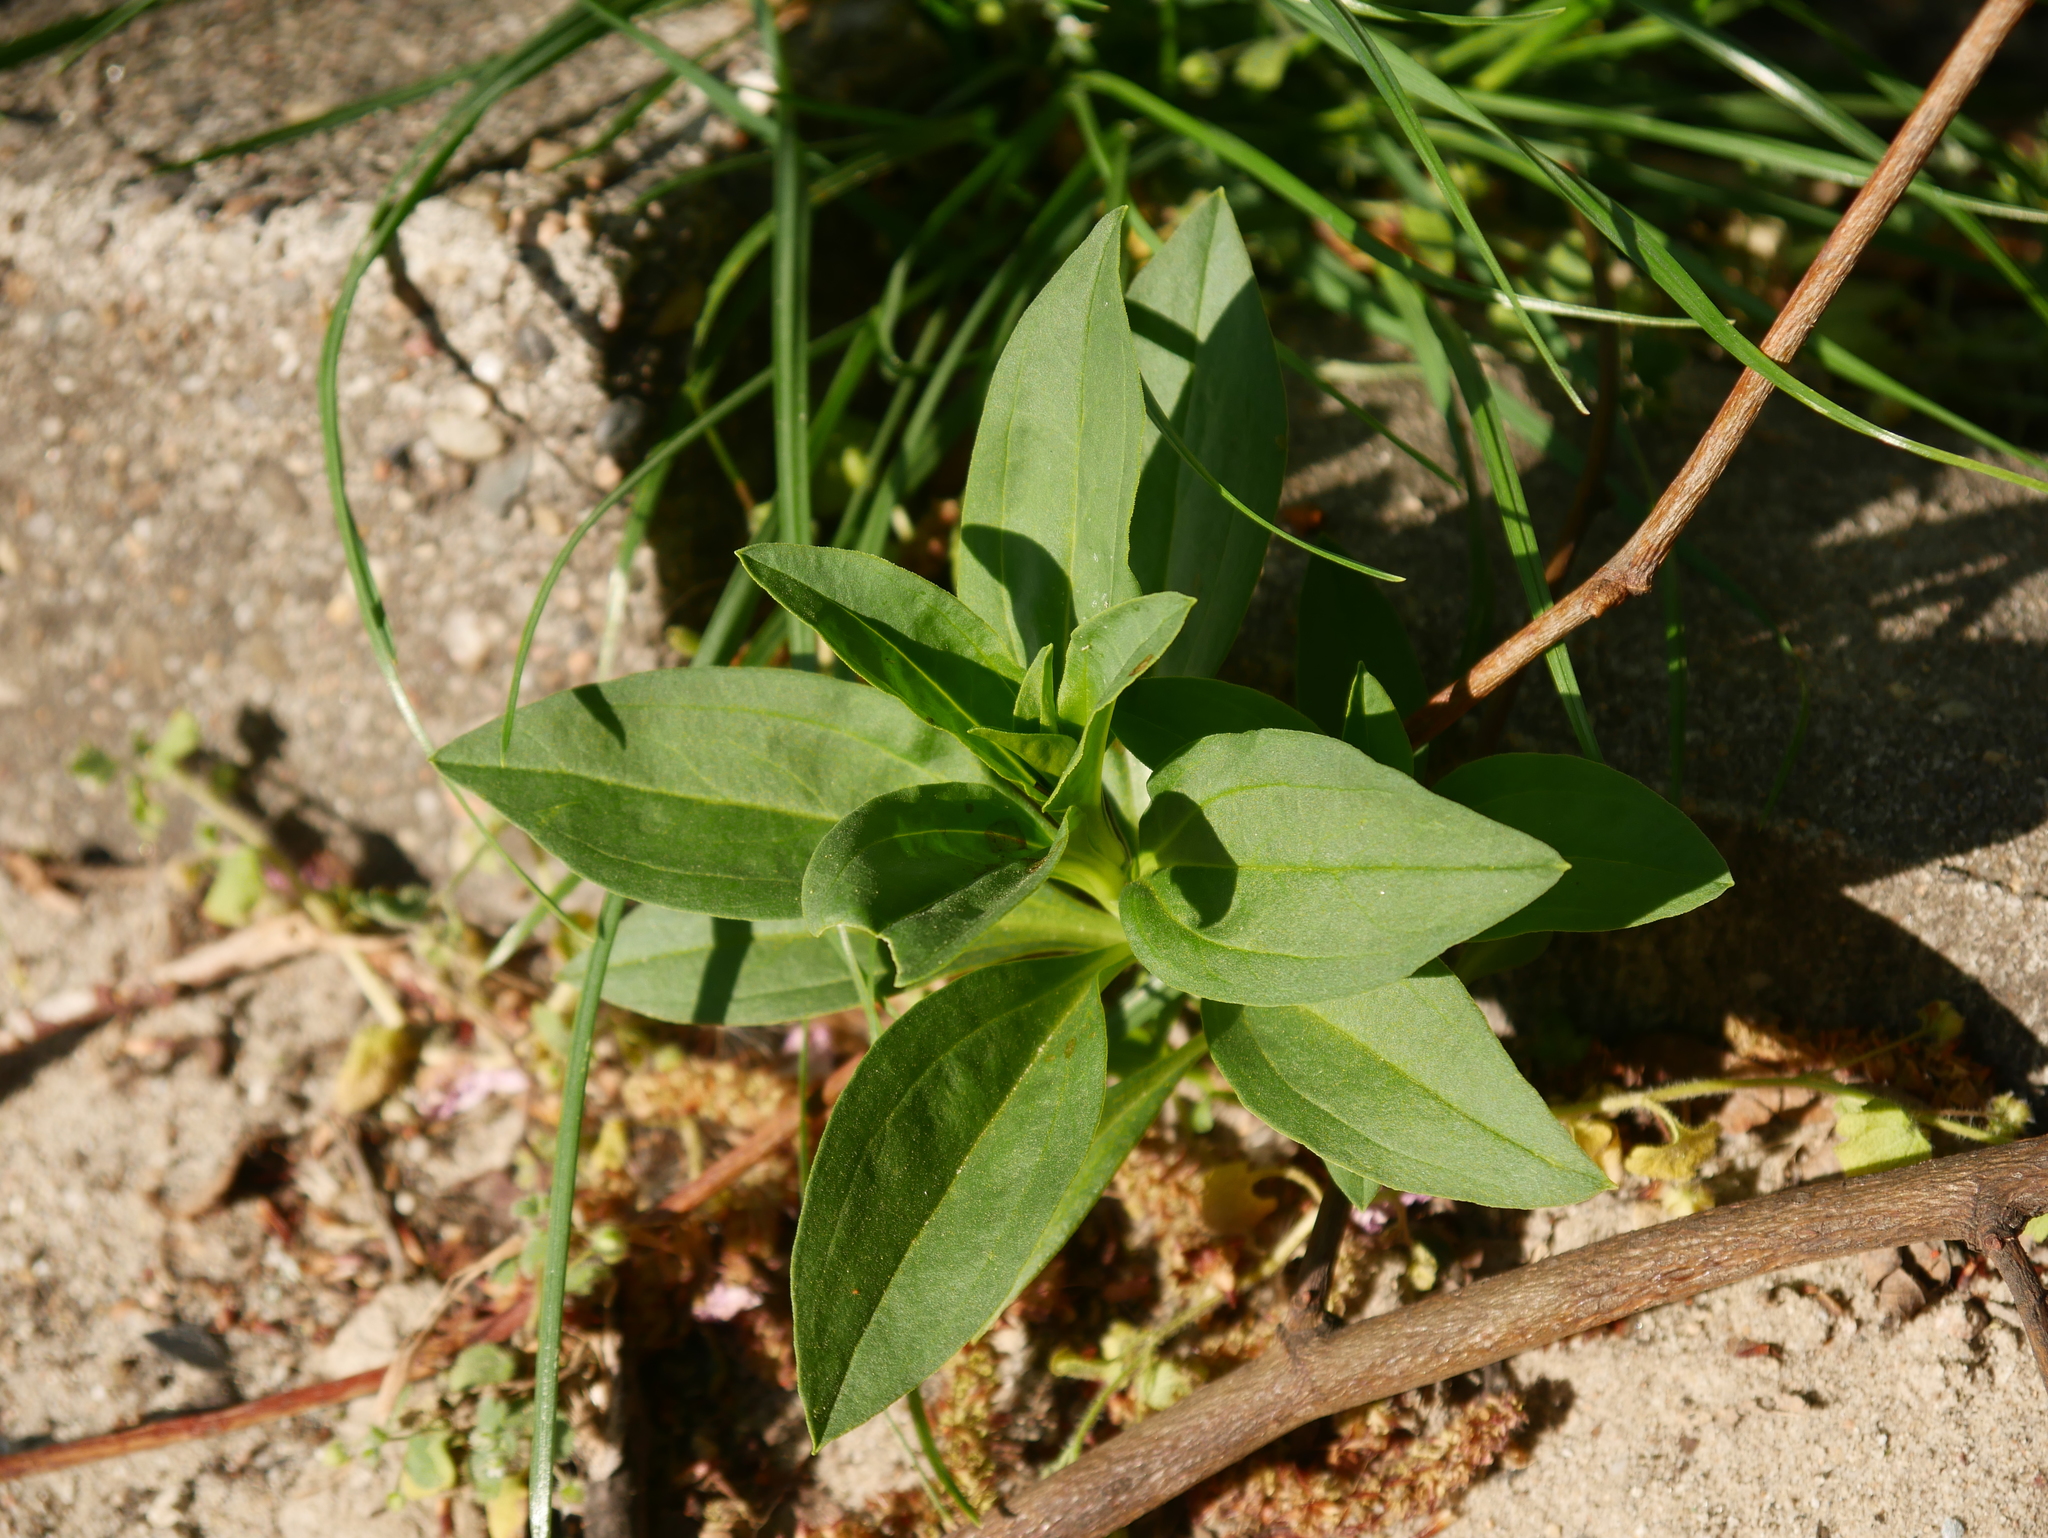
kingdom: Plantae
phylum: Tracheophyta
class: Magnoliopsida
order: Caryophyllales
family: Caryophyllaceae
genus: Saponaria
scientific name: Saponaria officinalis
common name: Soapwort
